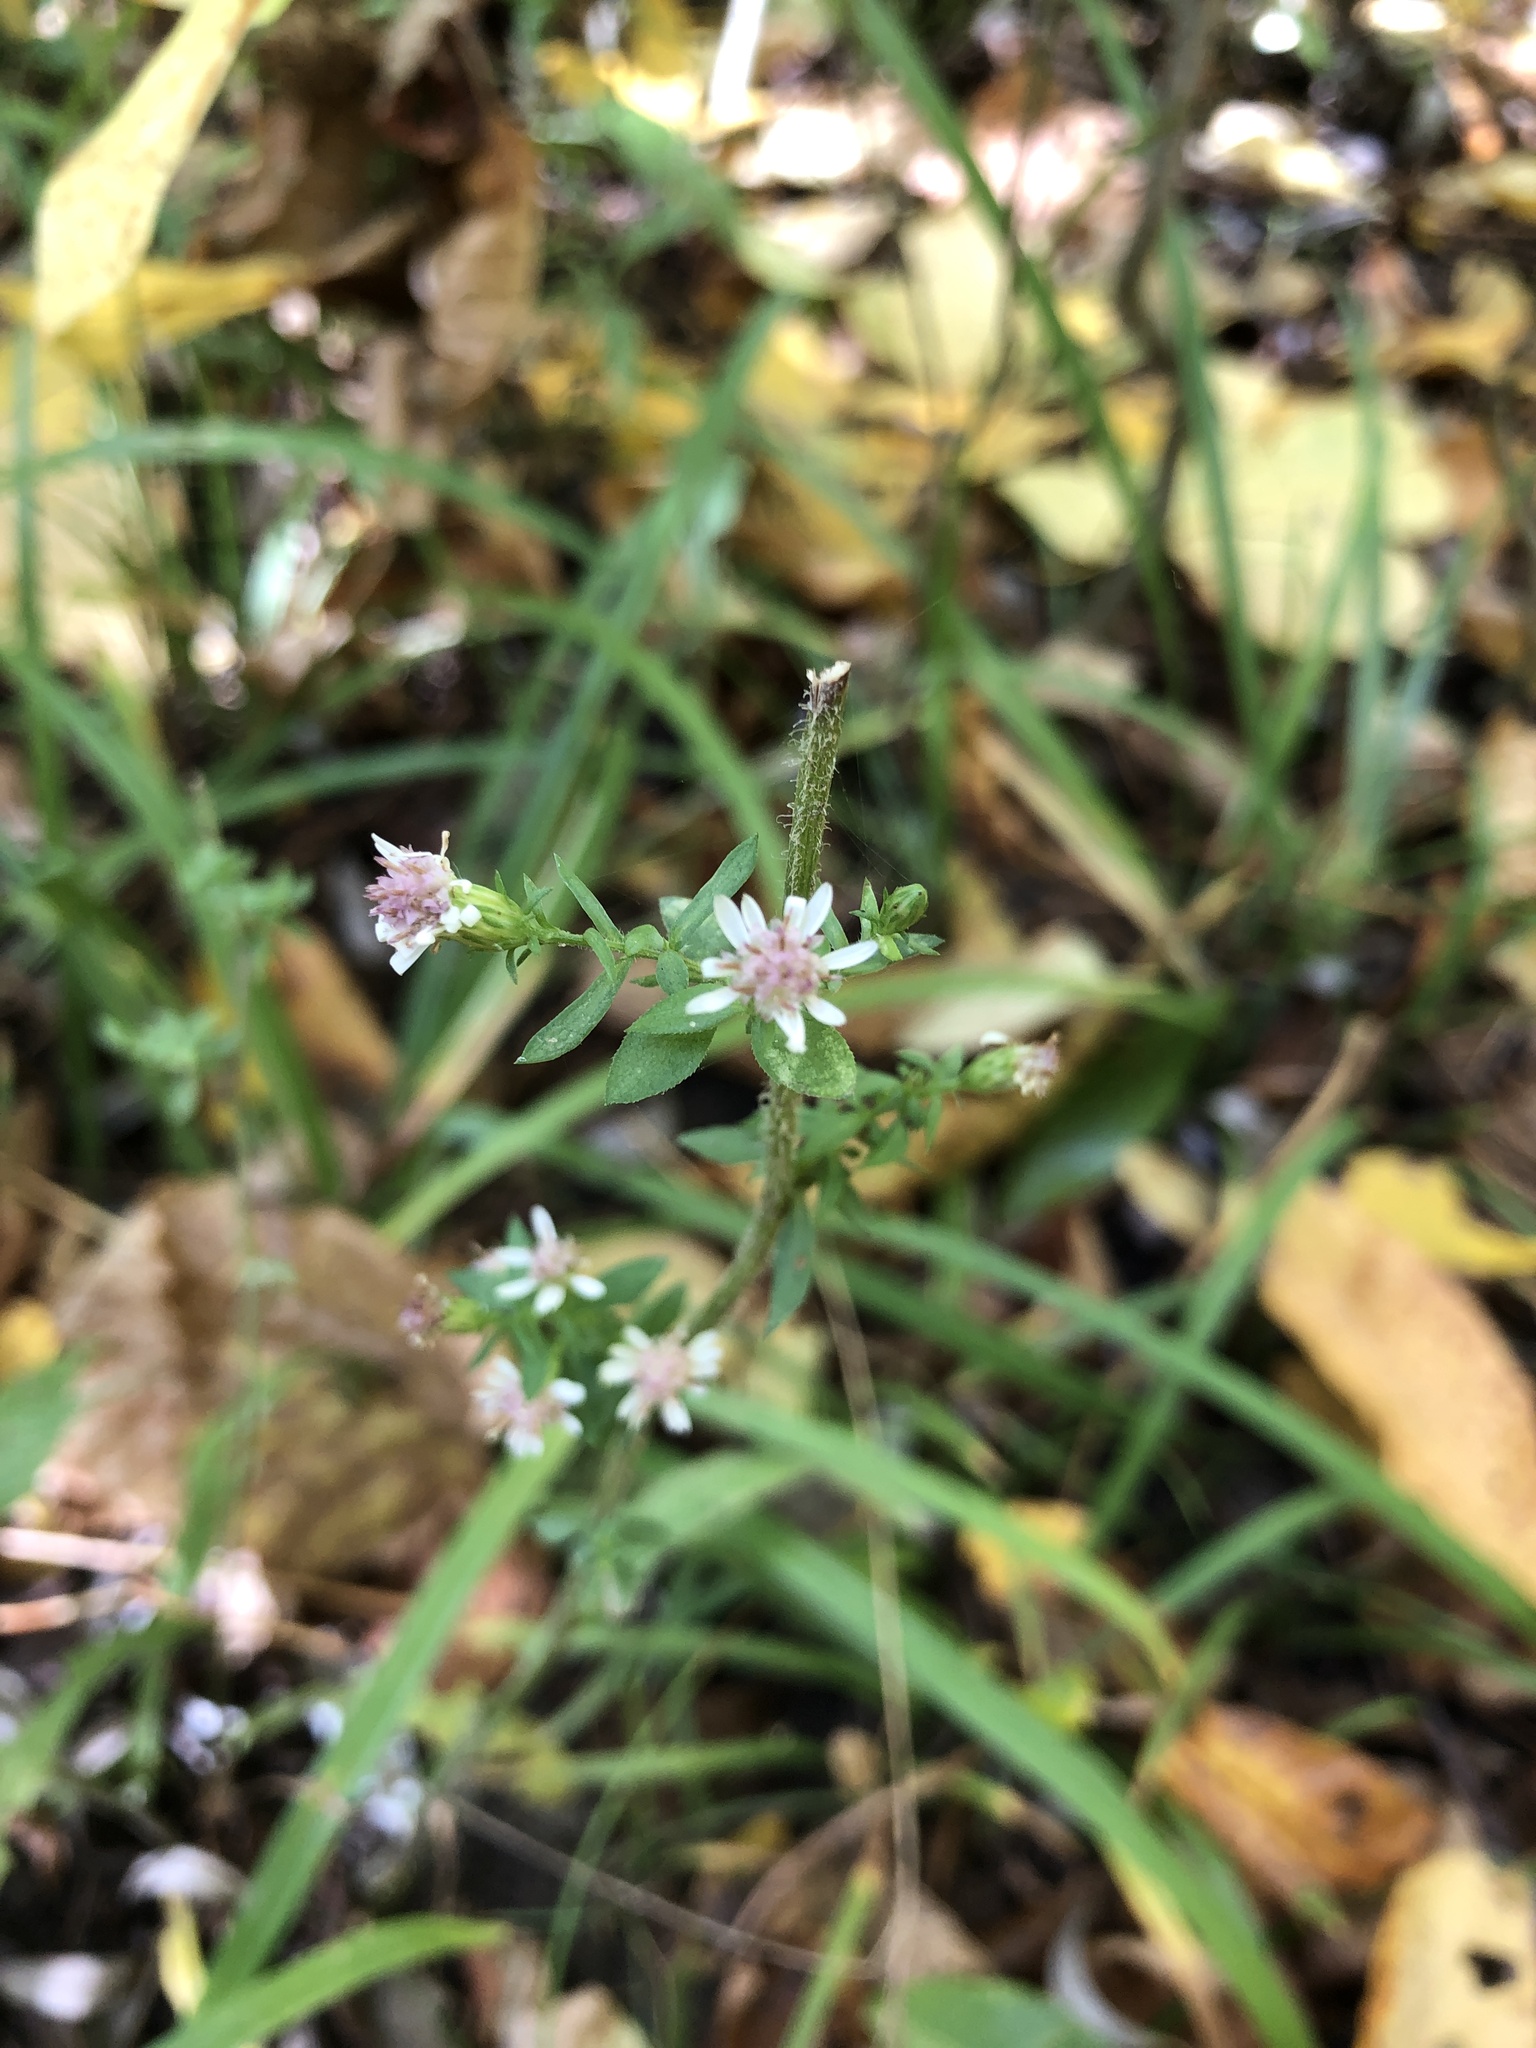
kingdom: Plantae
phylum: Tracheophyta
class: Magnoliopsida
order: Asterales
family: Asteraceae
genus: Symphyotrichum
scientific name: Symphyotrichum lateriflorum
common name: Calico aster
